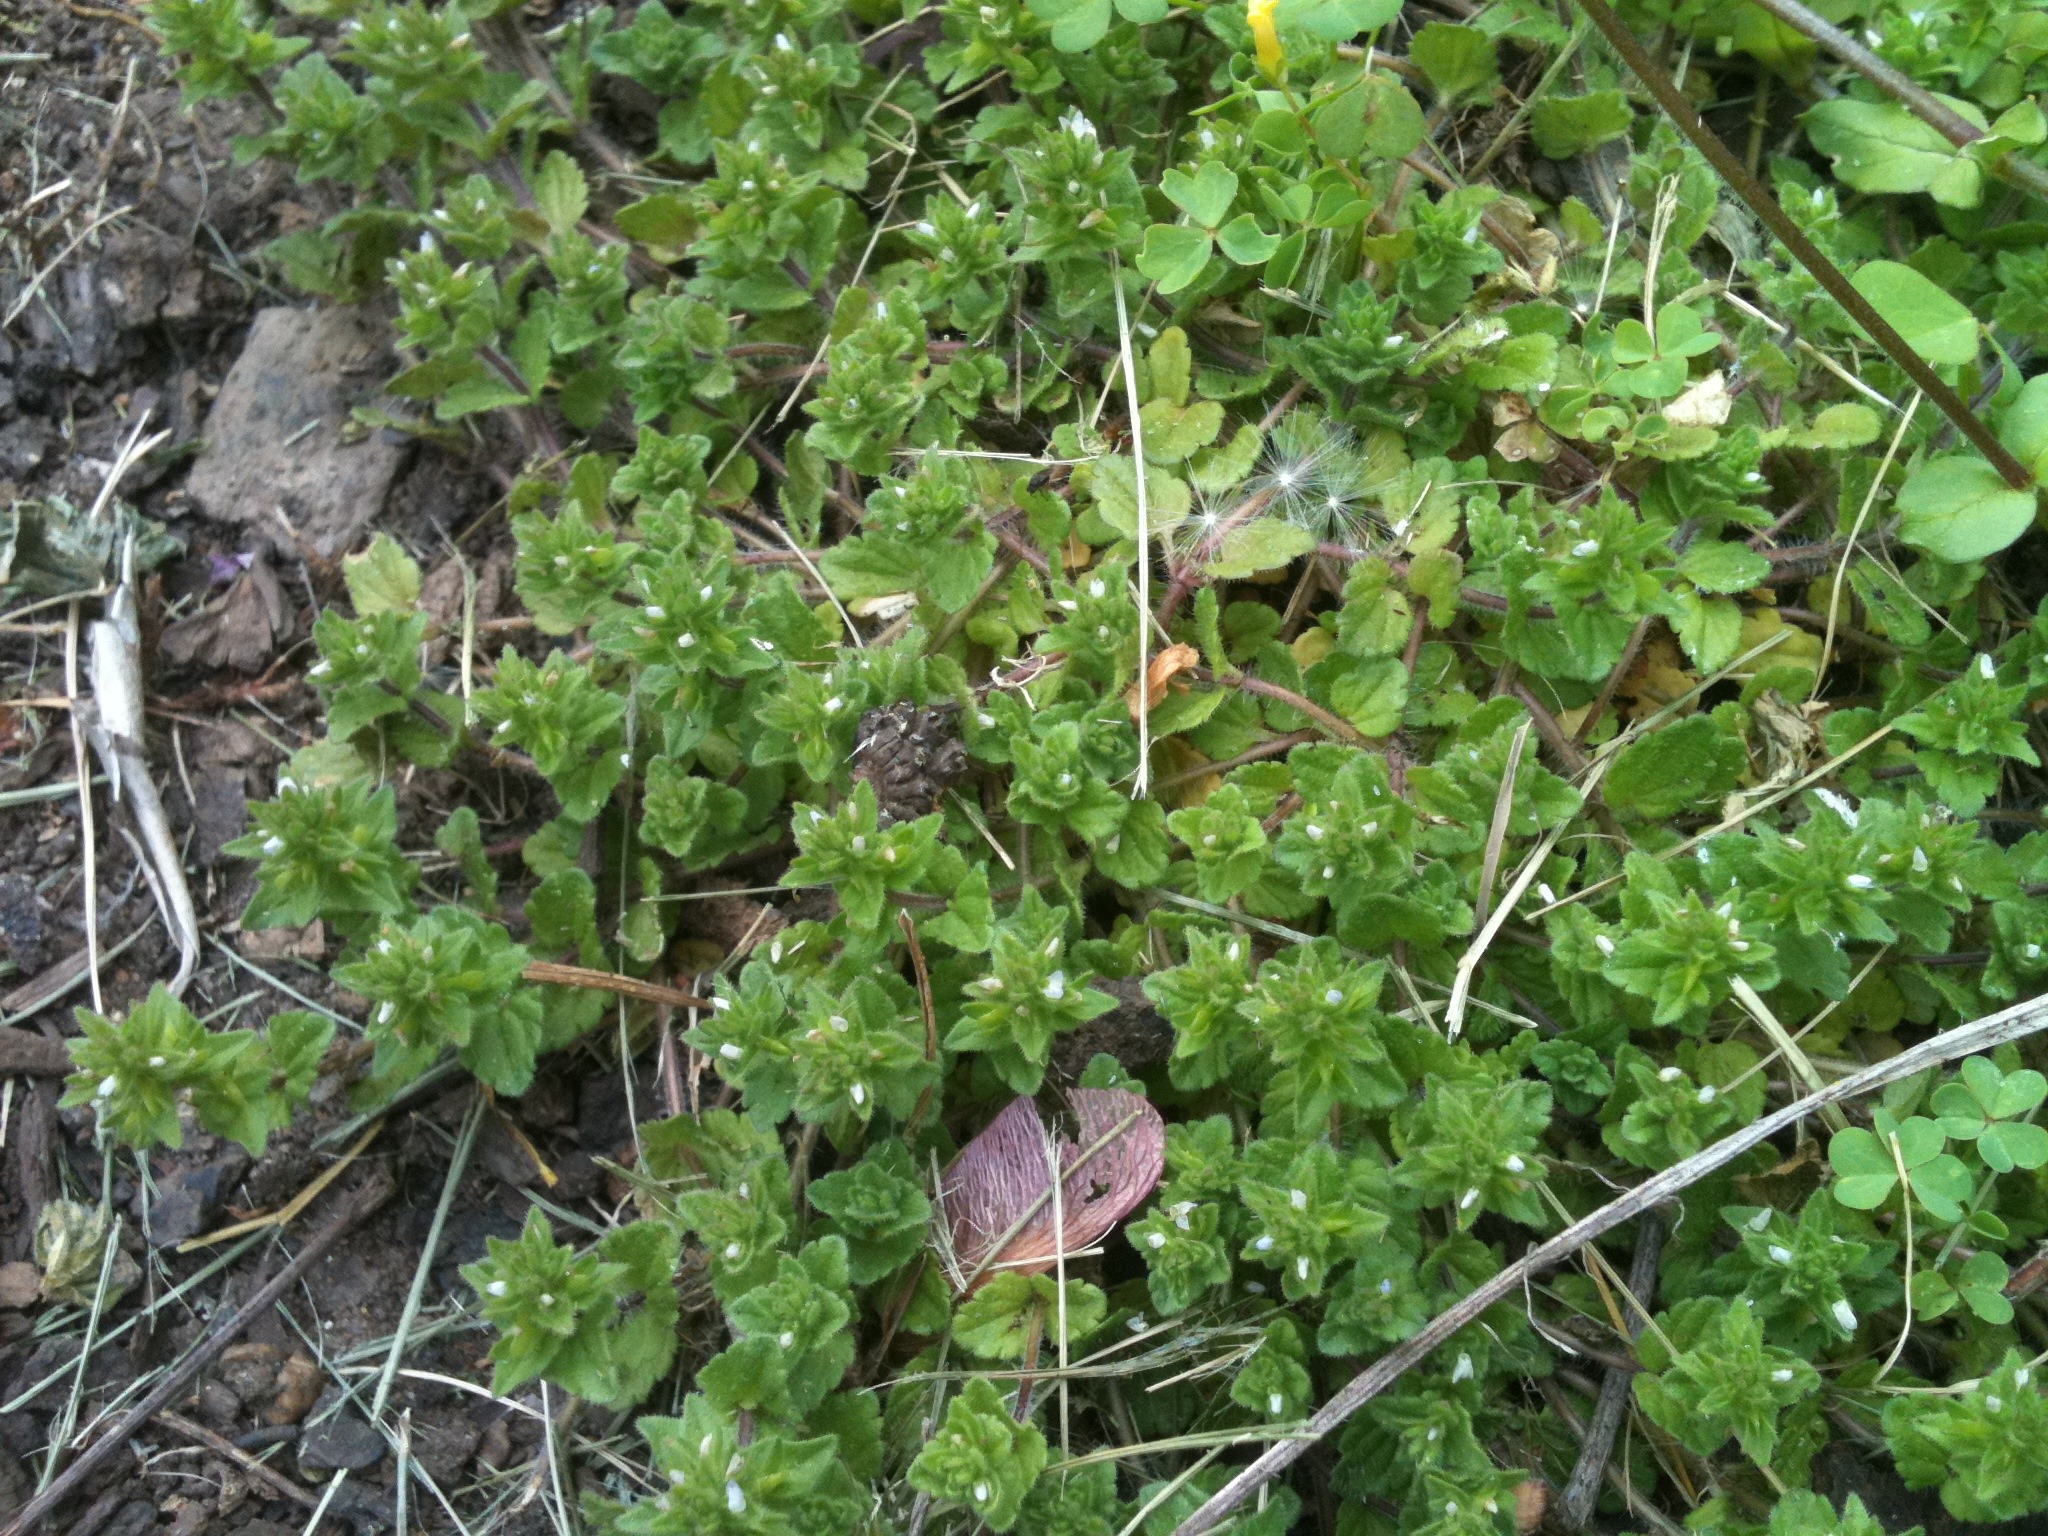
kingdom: Plantae
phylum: Tracheophyta
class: Magnoliopsida
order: Lamiales
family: Plantaginaceae
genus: Veronica
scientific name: Veronica arvensis
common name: Corn speedwell
